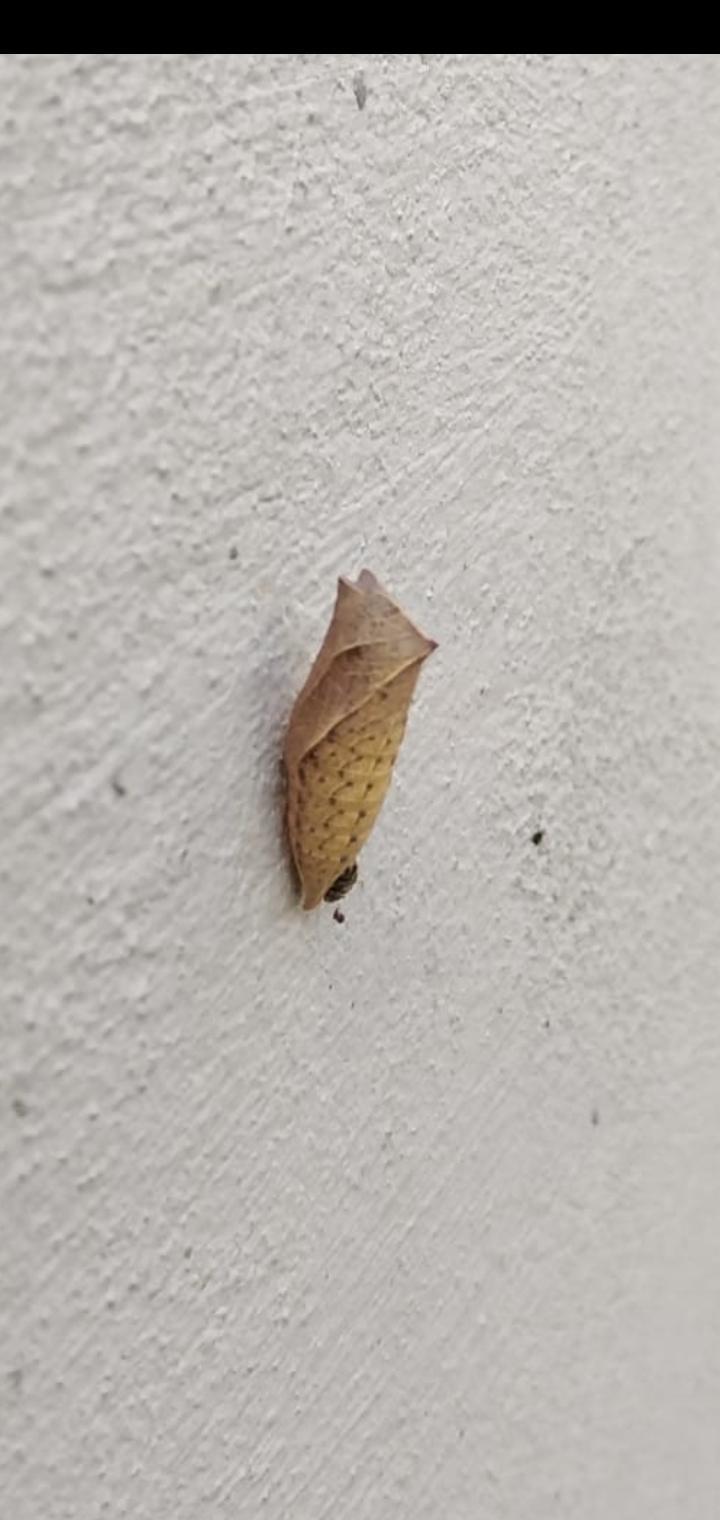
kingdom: Animalia
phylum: Arthropoda
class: Insecta
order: Lepidoptera
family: Papilionidae
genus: Iphiclides
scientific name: Iphiclides podalirius
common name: Scarce swallowtail
